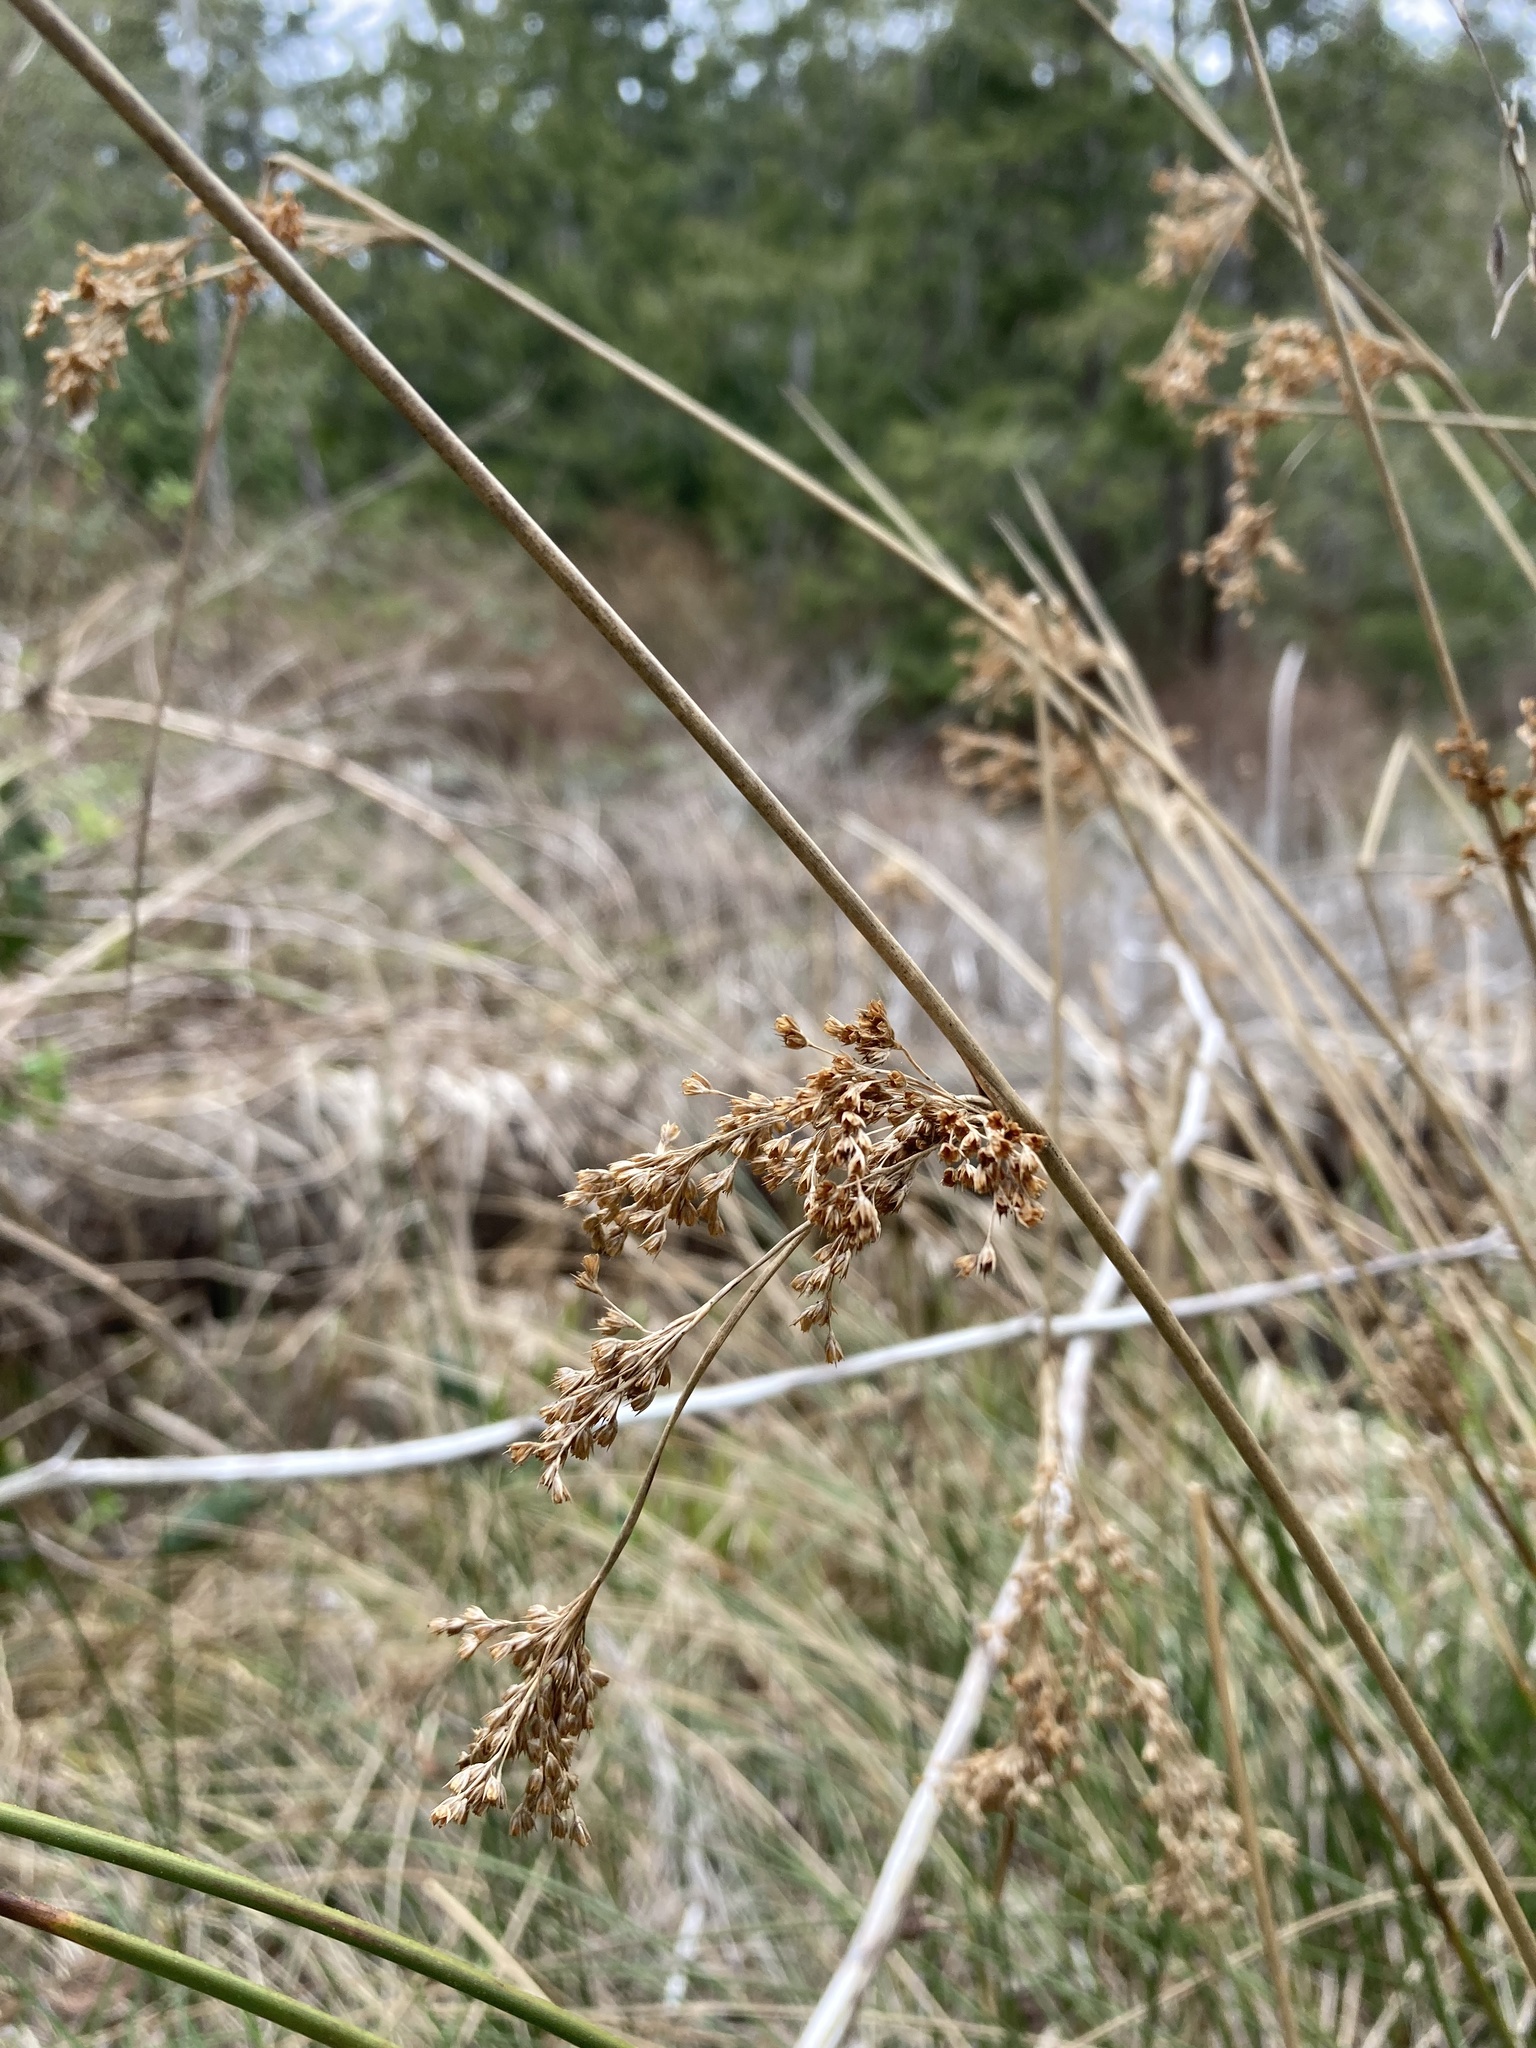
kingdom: Plantae
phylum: Tracheophyta
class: Liliopsida
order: Poales
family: Juncaceae
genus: Juncus
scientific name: Juncus effusus
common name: Soft rush
